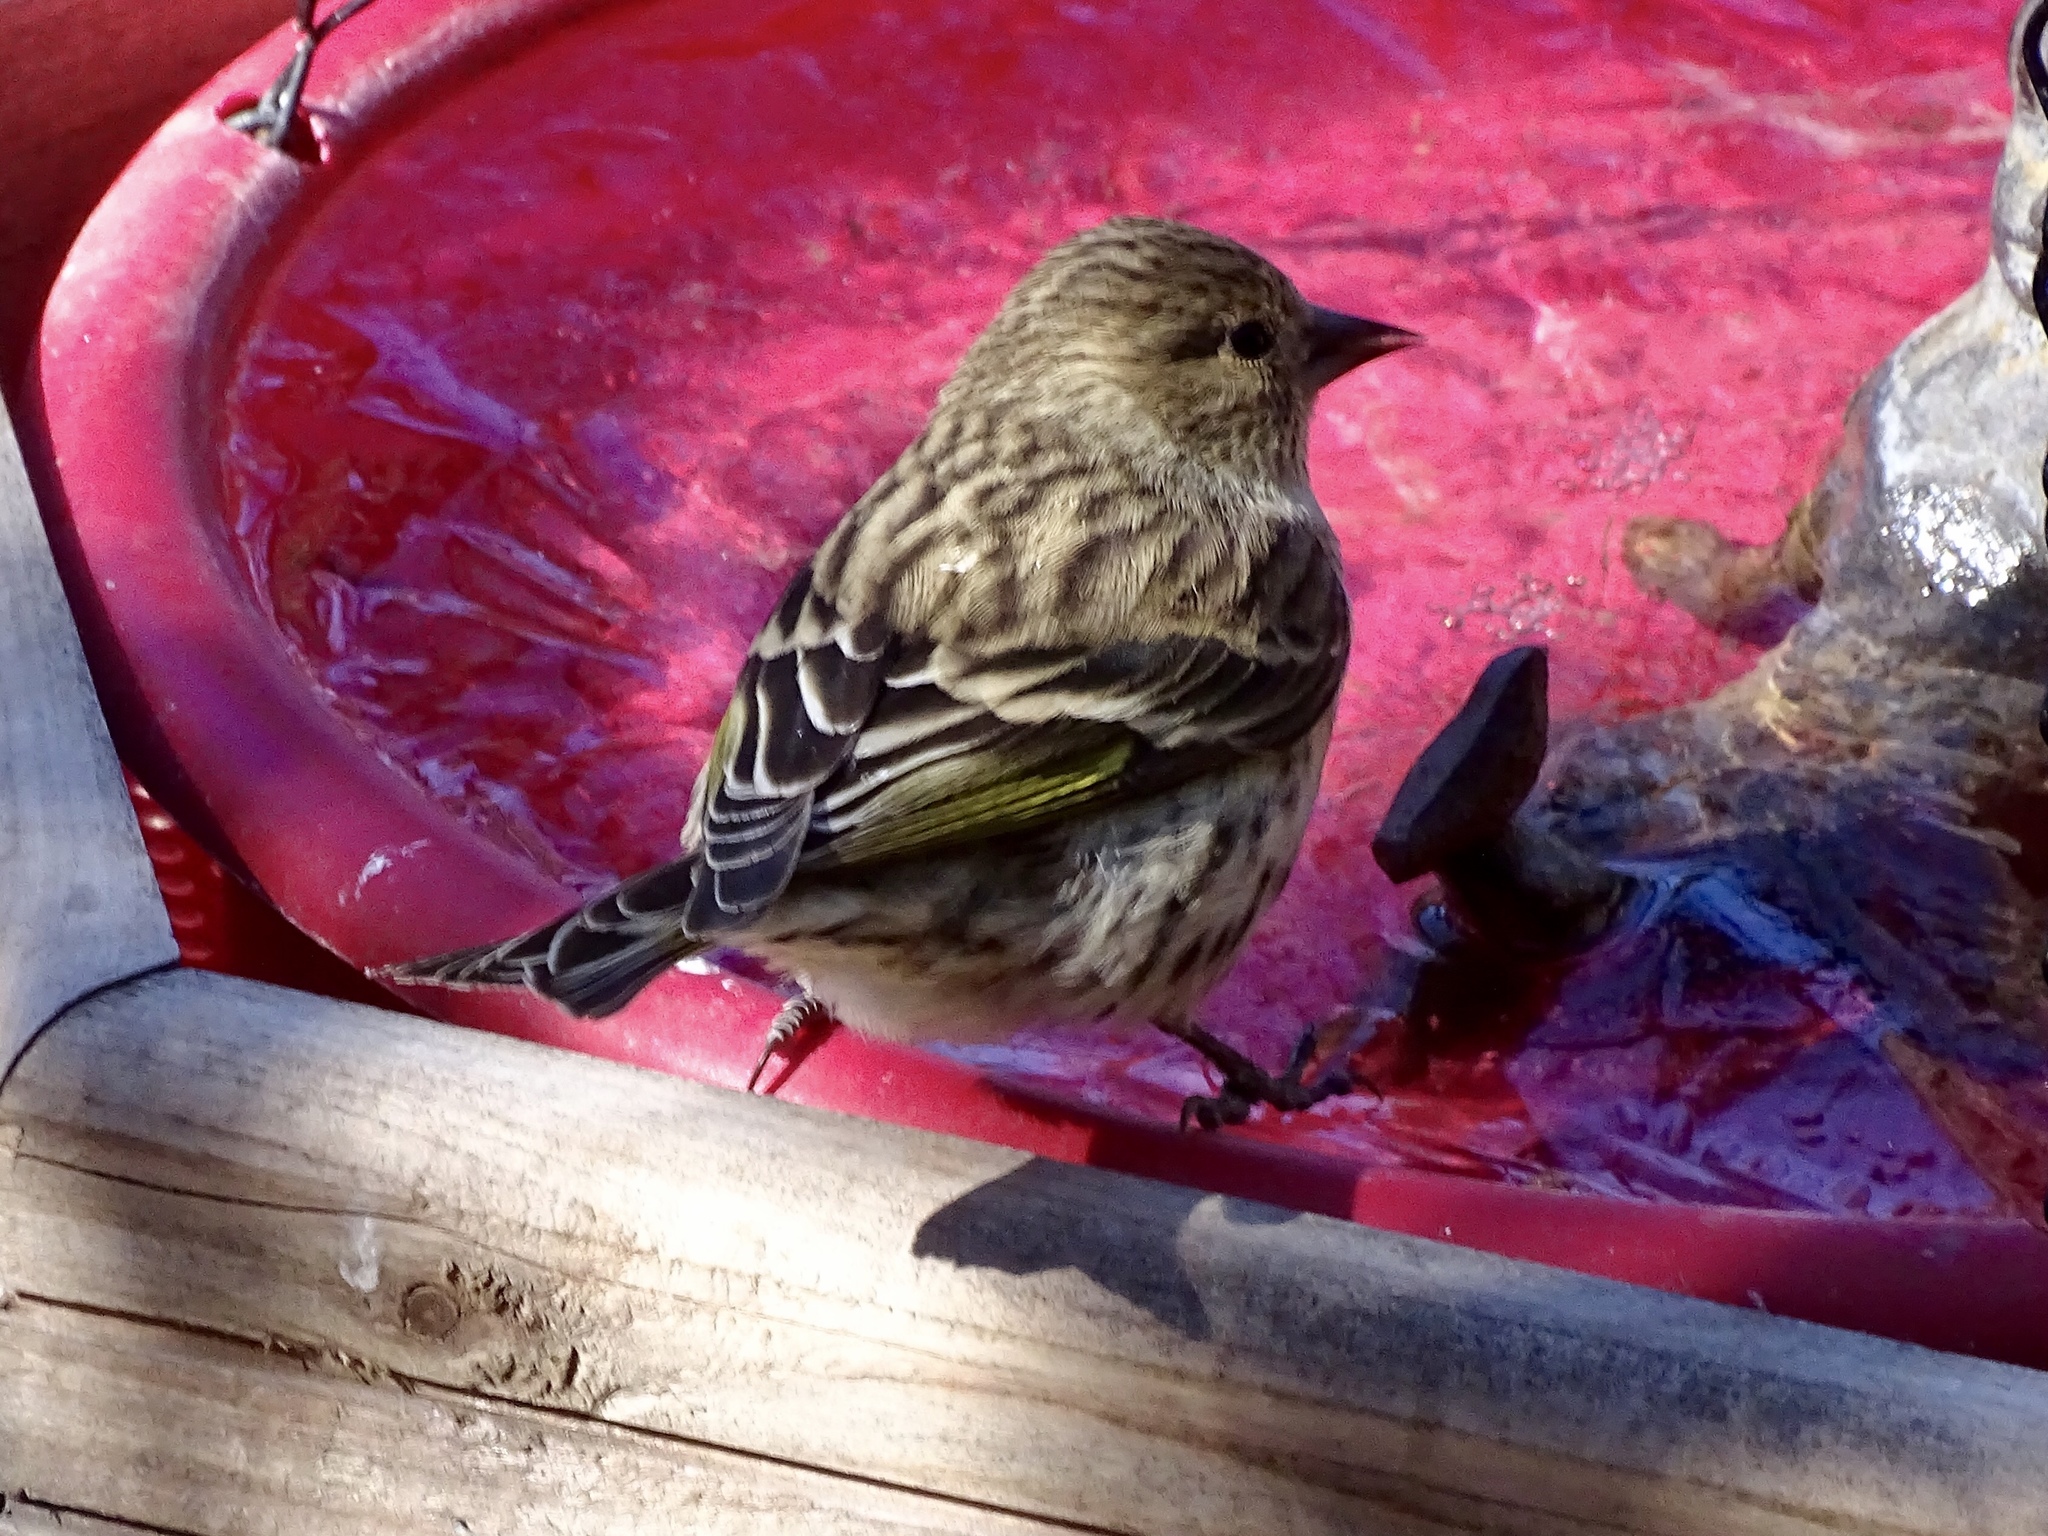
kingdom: Animalia
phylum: Chordata
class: Aves
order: Passeriformes
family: Fringillidae
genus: Spinus
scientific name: Spinus pinus
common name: Pine siskin
